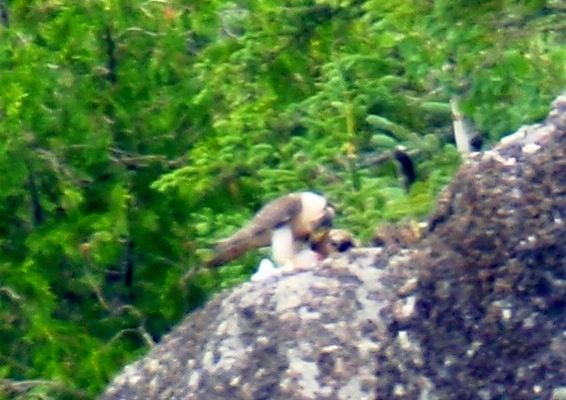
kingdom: Animalia
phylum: Chordata
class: Aves
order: Falconiformes
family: Falconidae
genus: Falco
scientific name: Falco peregrinus
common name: Peregrine falcon
